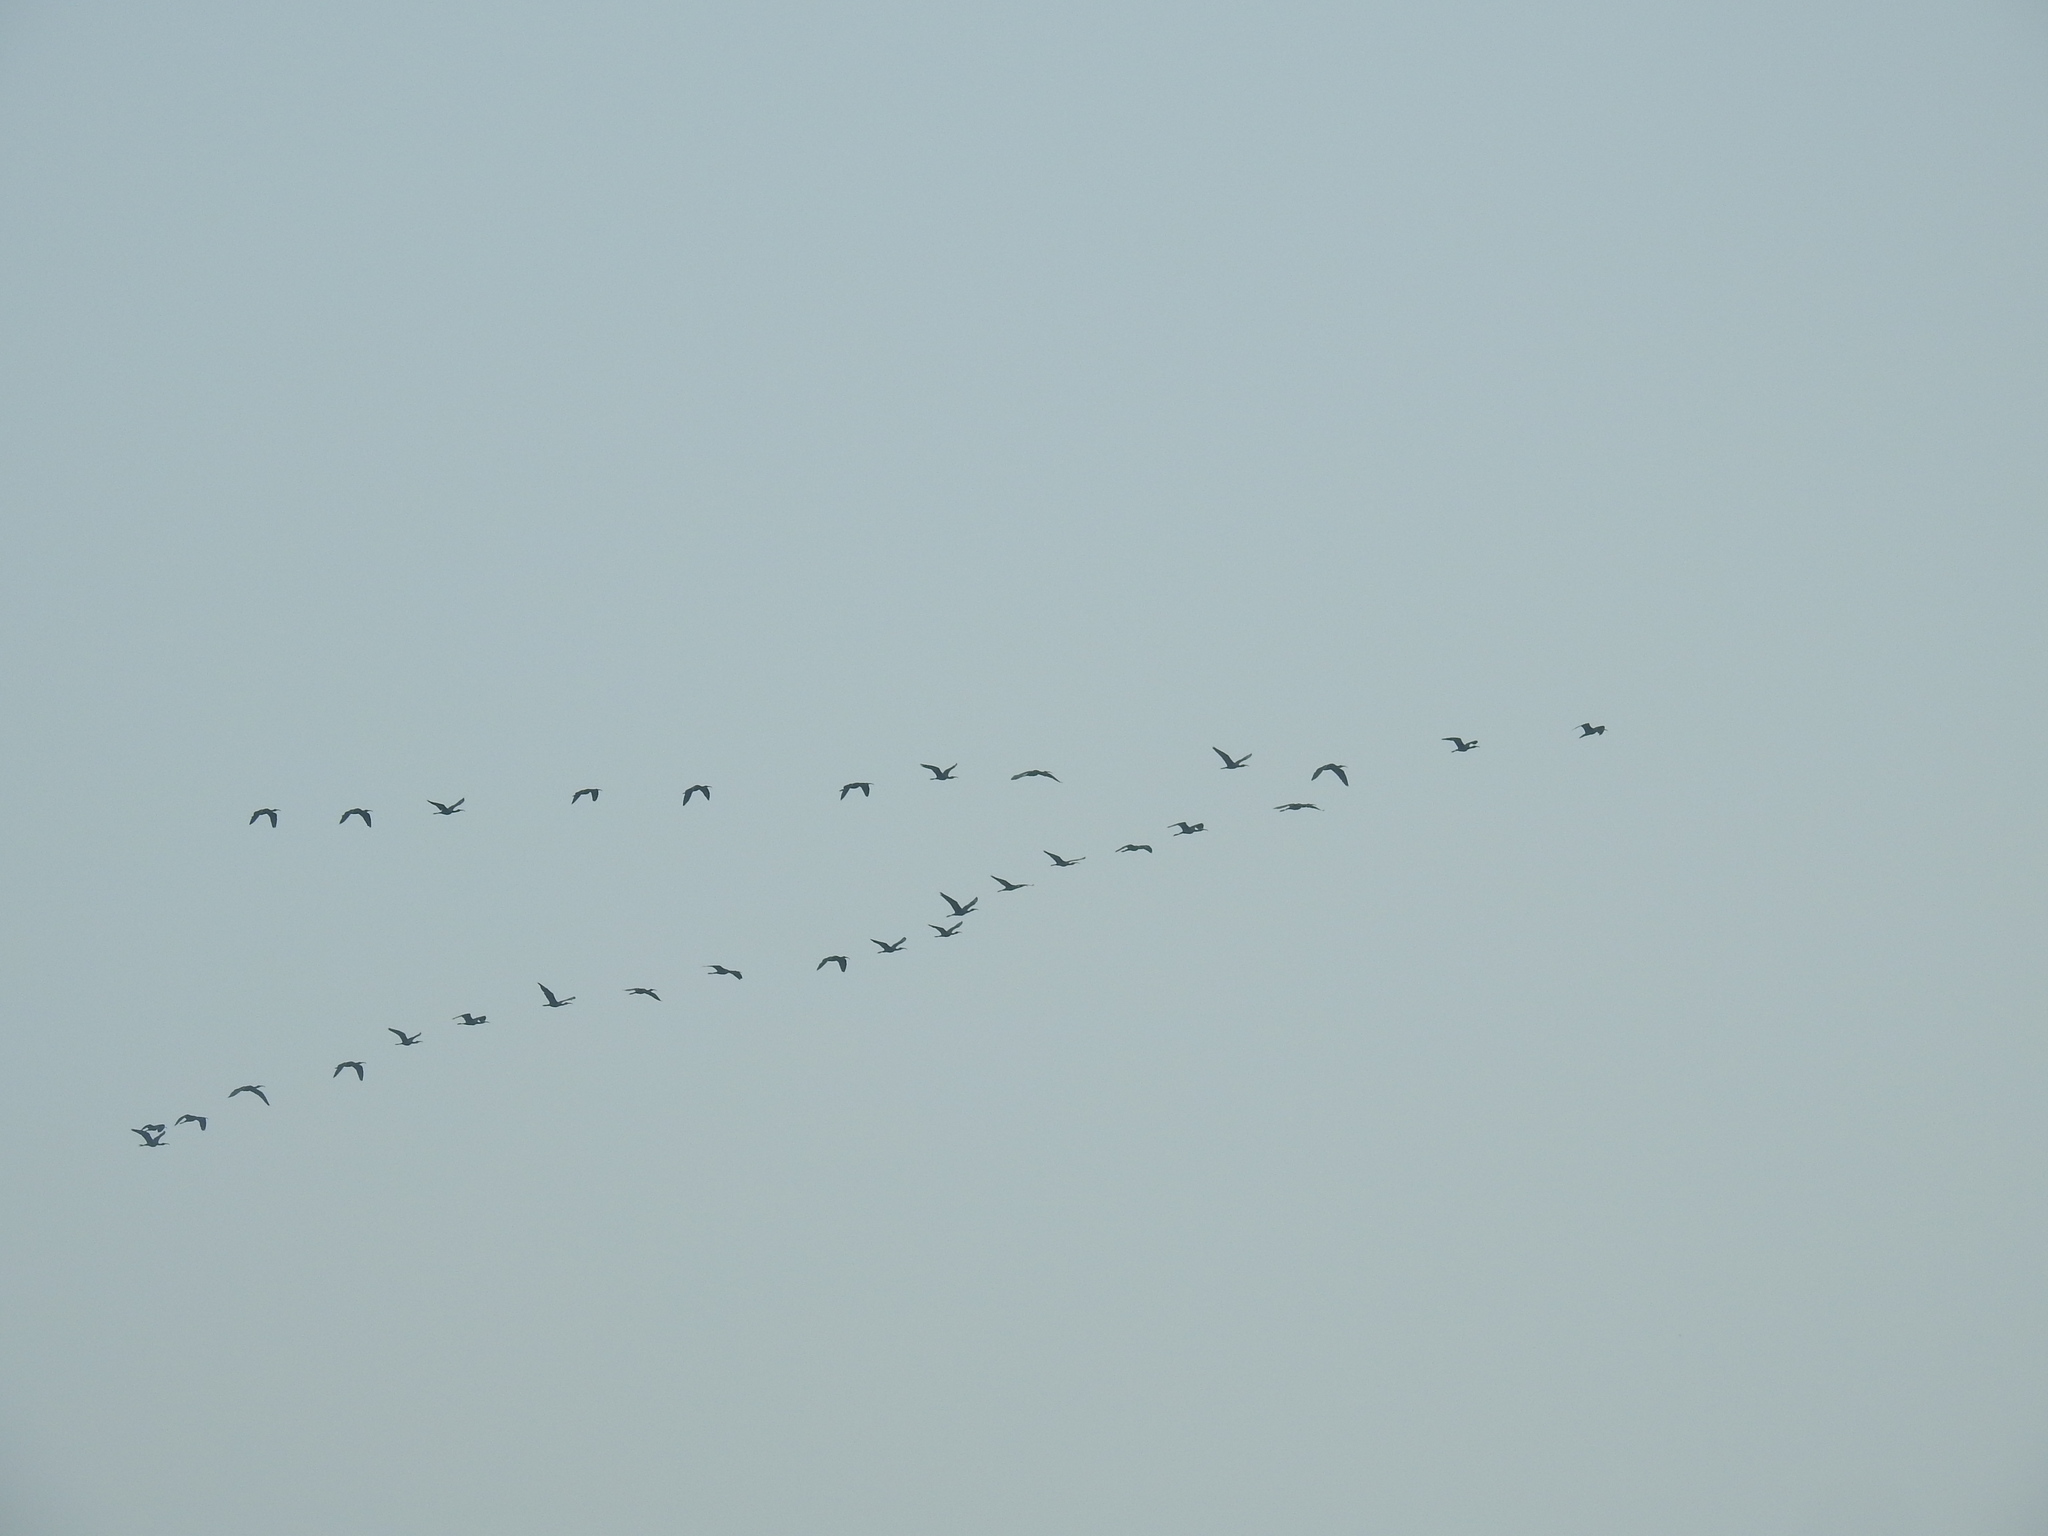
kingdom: Animalia
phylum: Chordata
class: Aves
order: Pelecaniformes
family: Threskiornithidae
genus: Plegadis
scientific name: Plegadis falcinellus
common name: Glossy ibis
